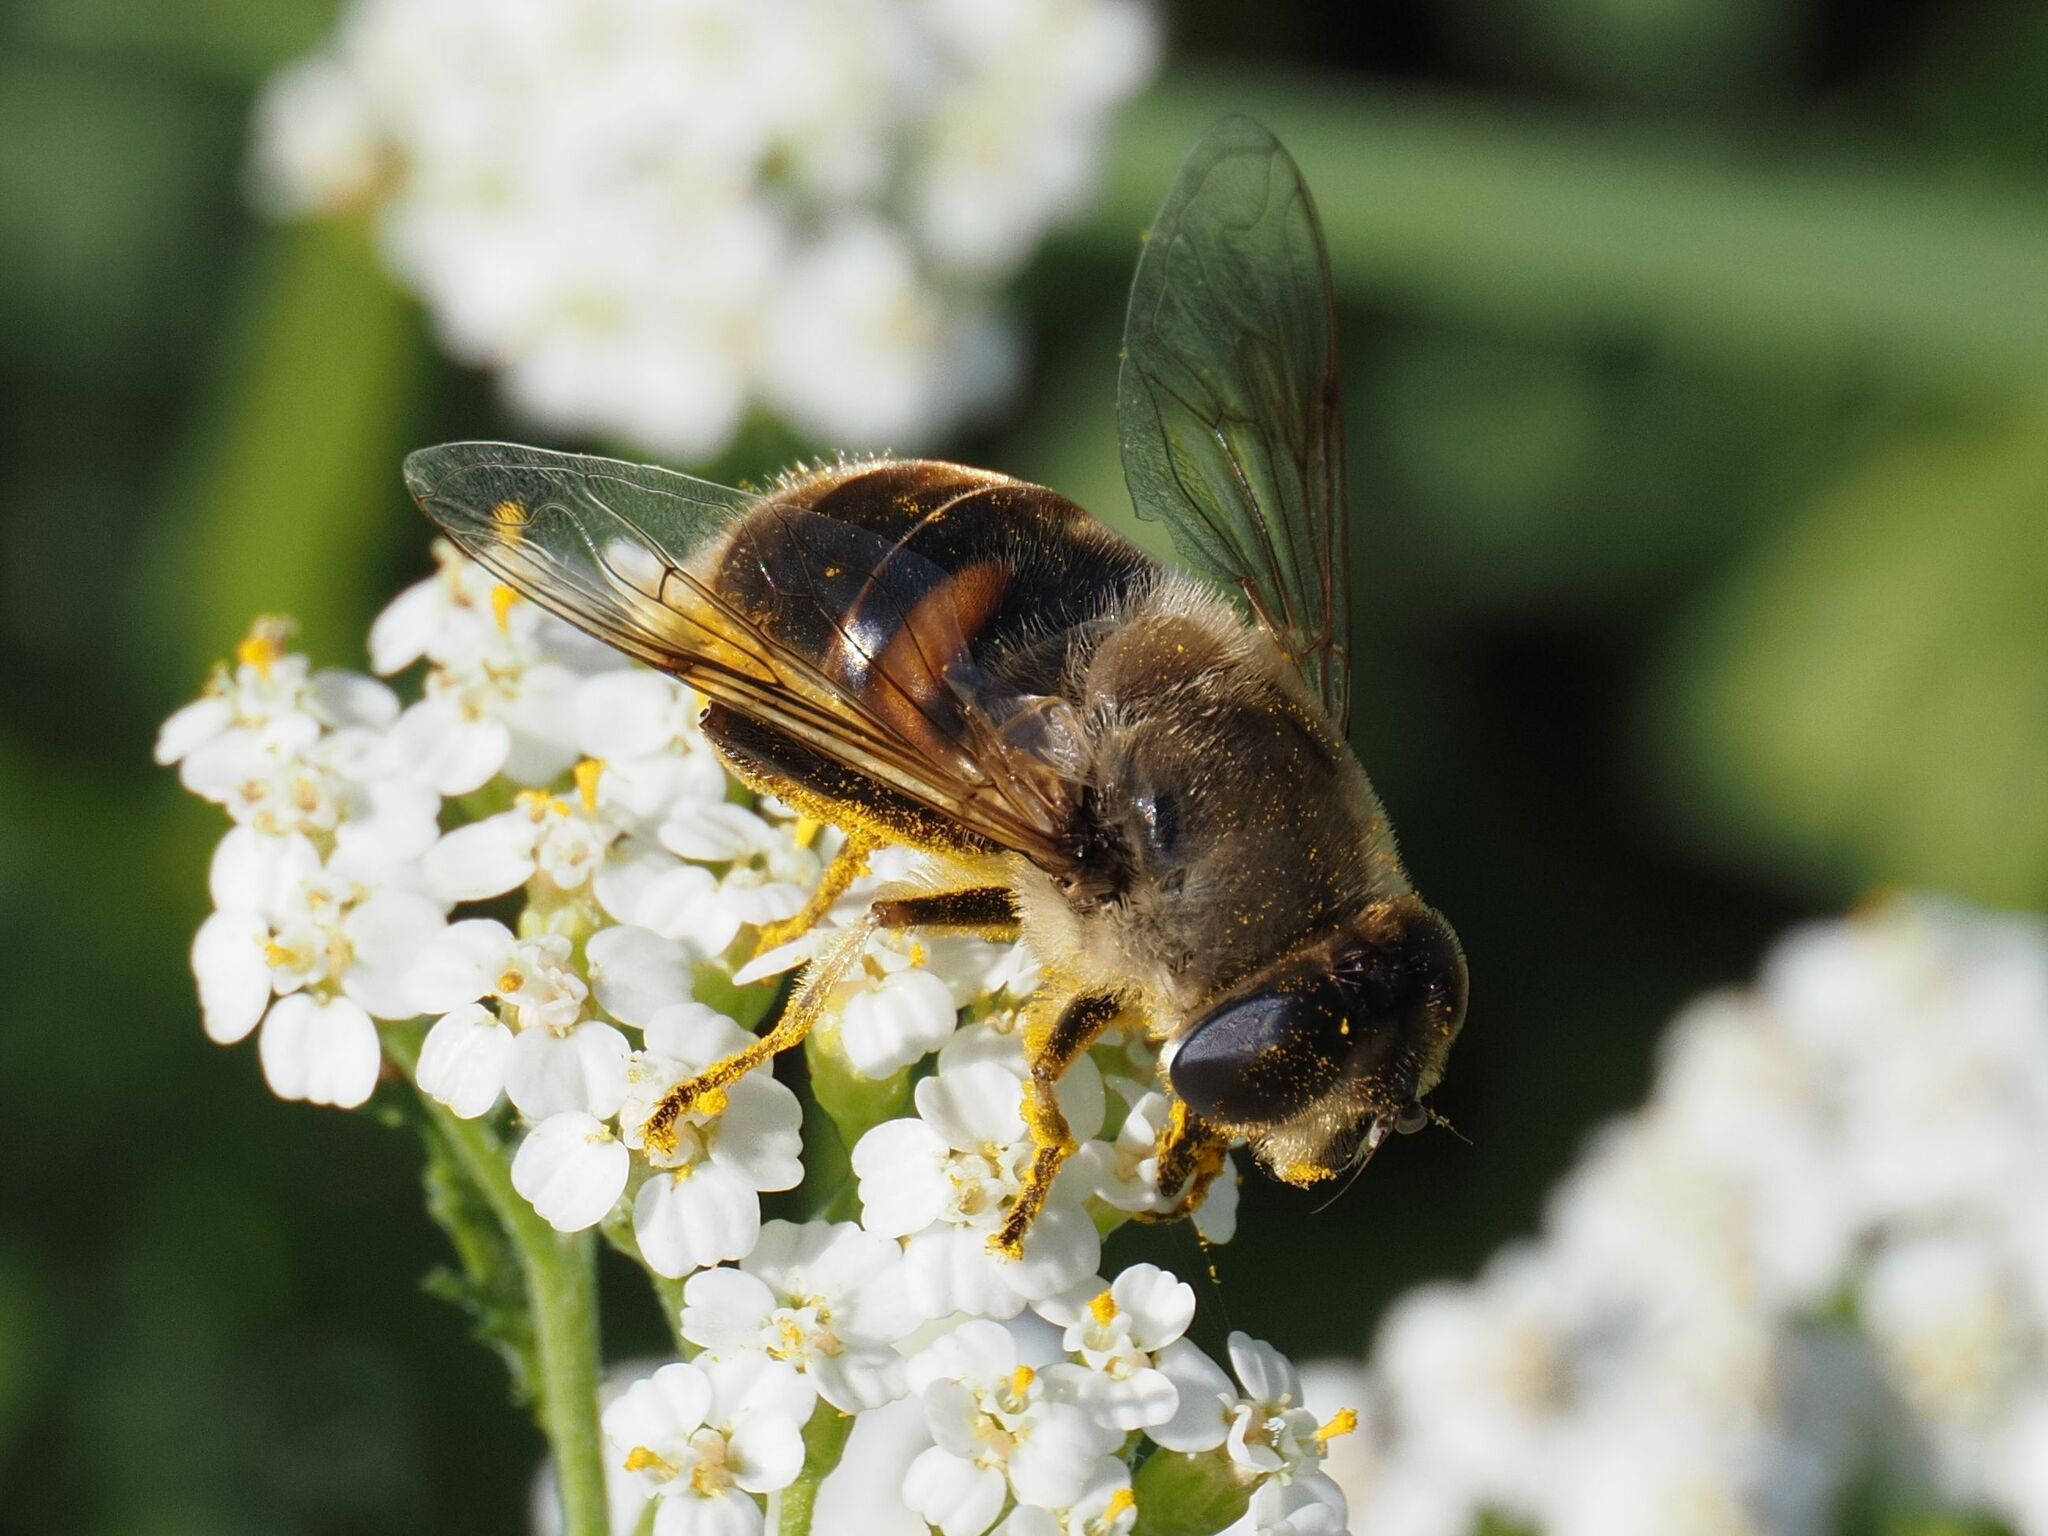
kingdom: Animalia
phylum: Arthropoda
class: Insecta
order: Diptera
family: Syrphidae
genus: Eristalis
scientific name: Eristalis tenax
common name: Drone fly
